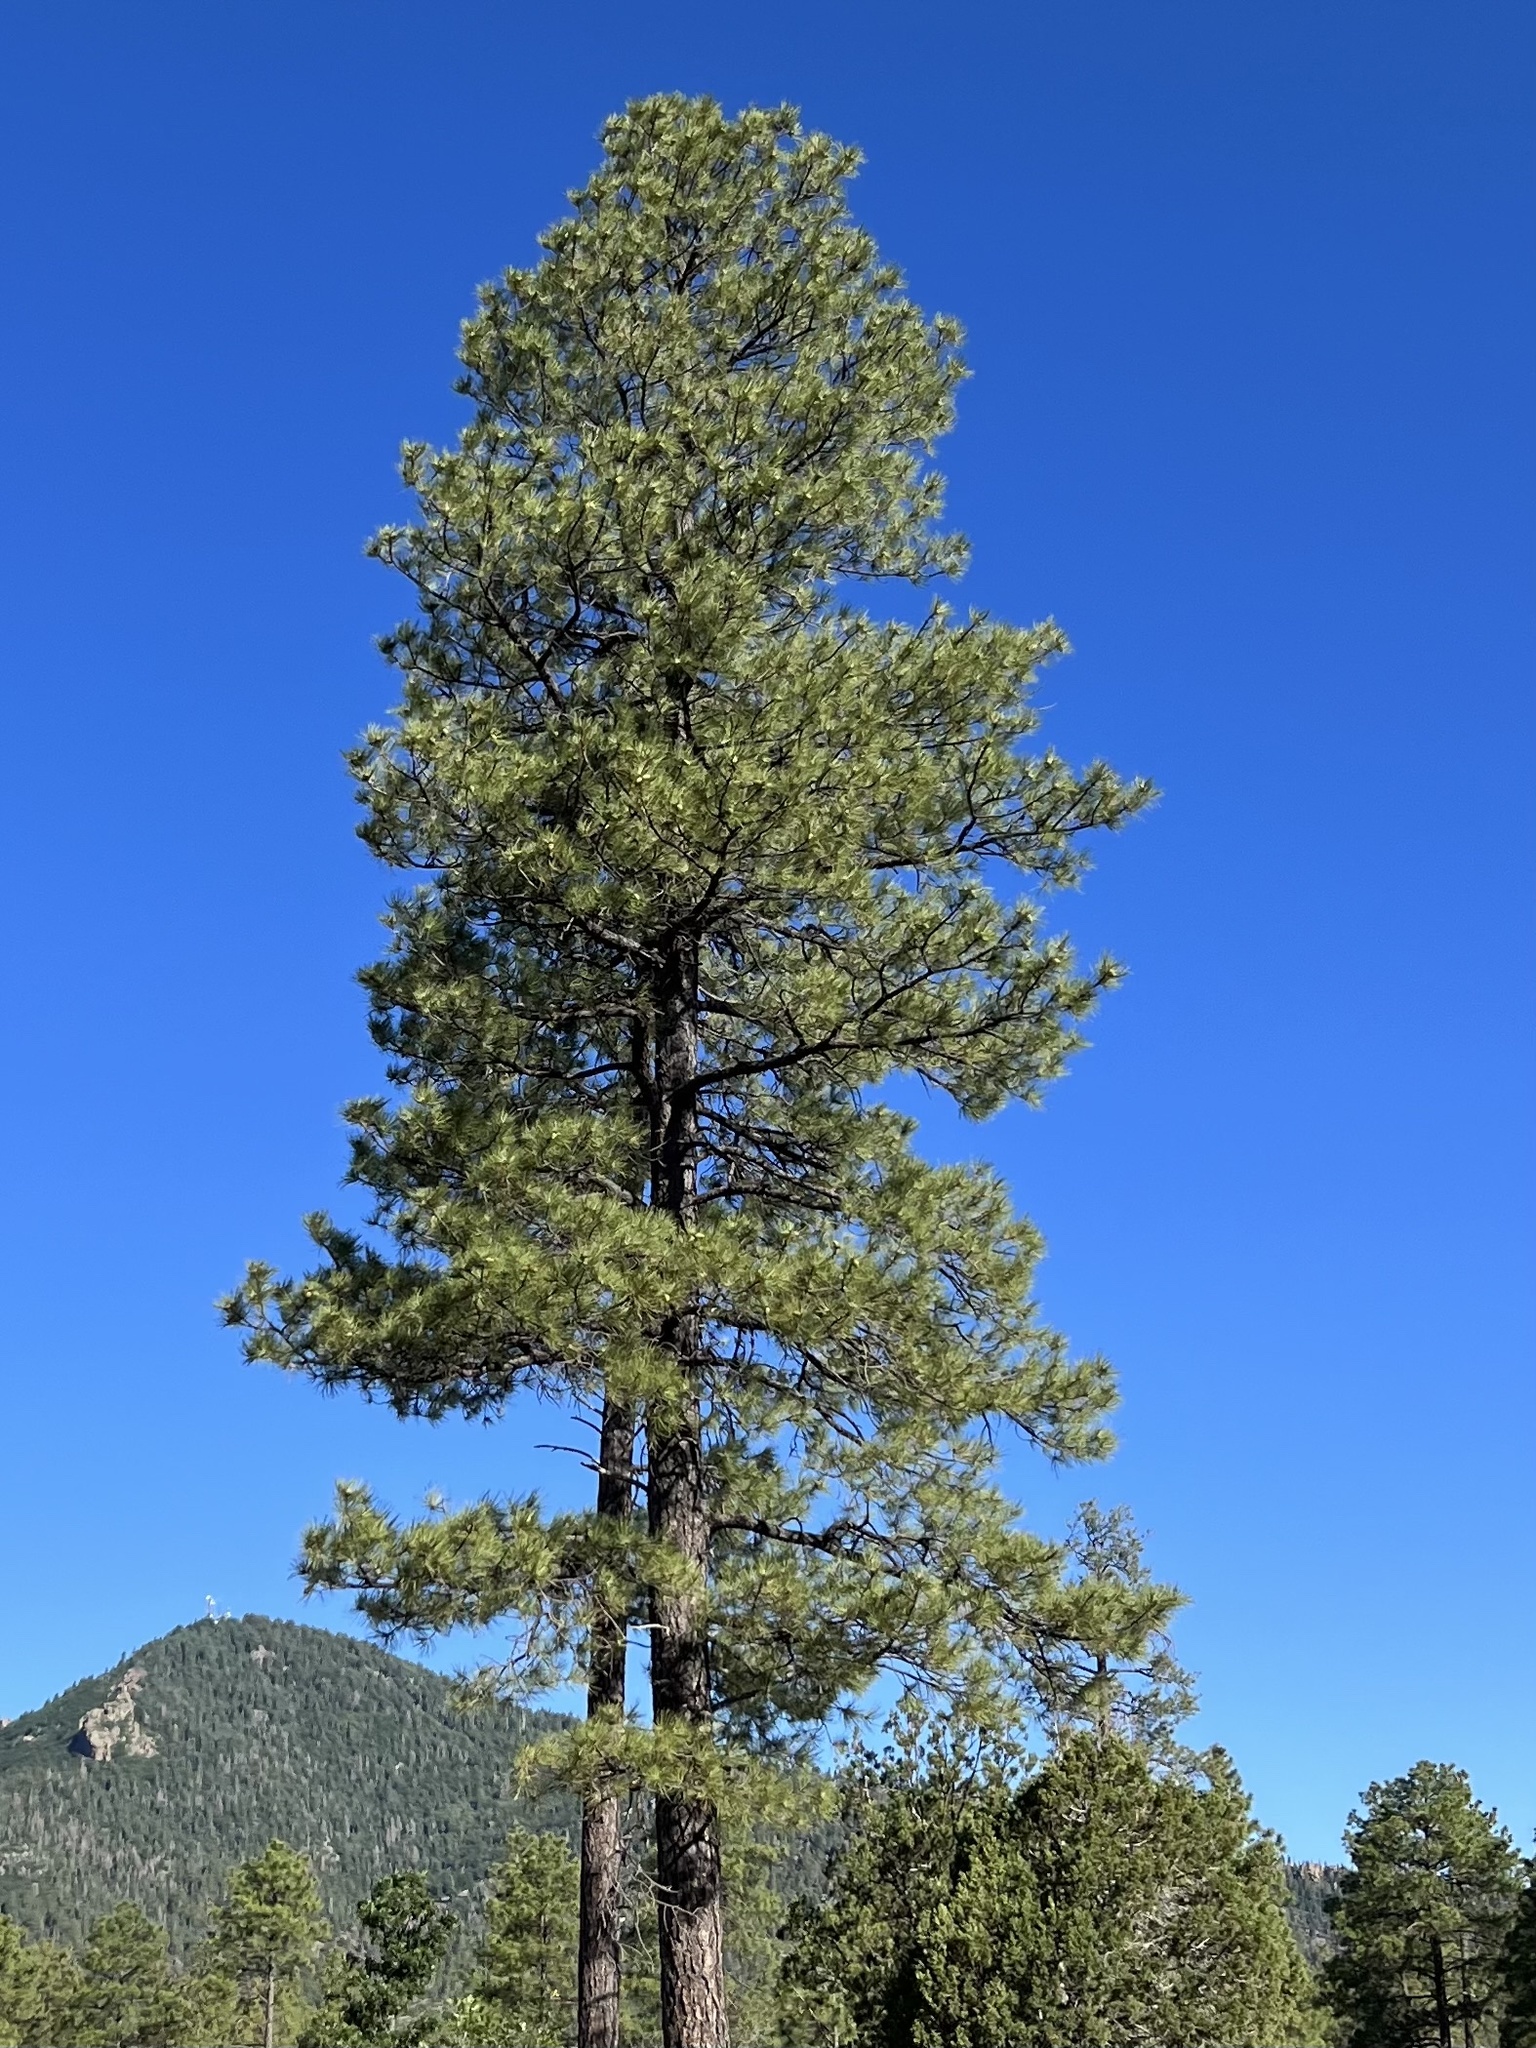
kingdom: Plantae
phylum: Tracheophyta
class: Pinopsida
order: Pinales
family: Pinaceae
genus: Pinus
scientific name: Pinus ponderosa
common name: Western yellow-pine
